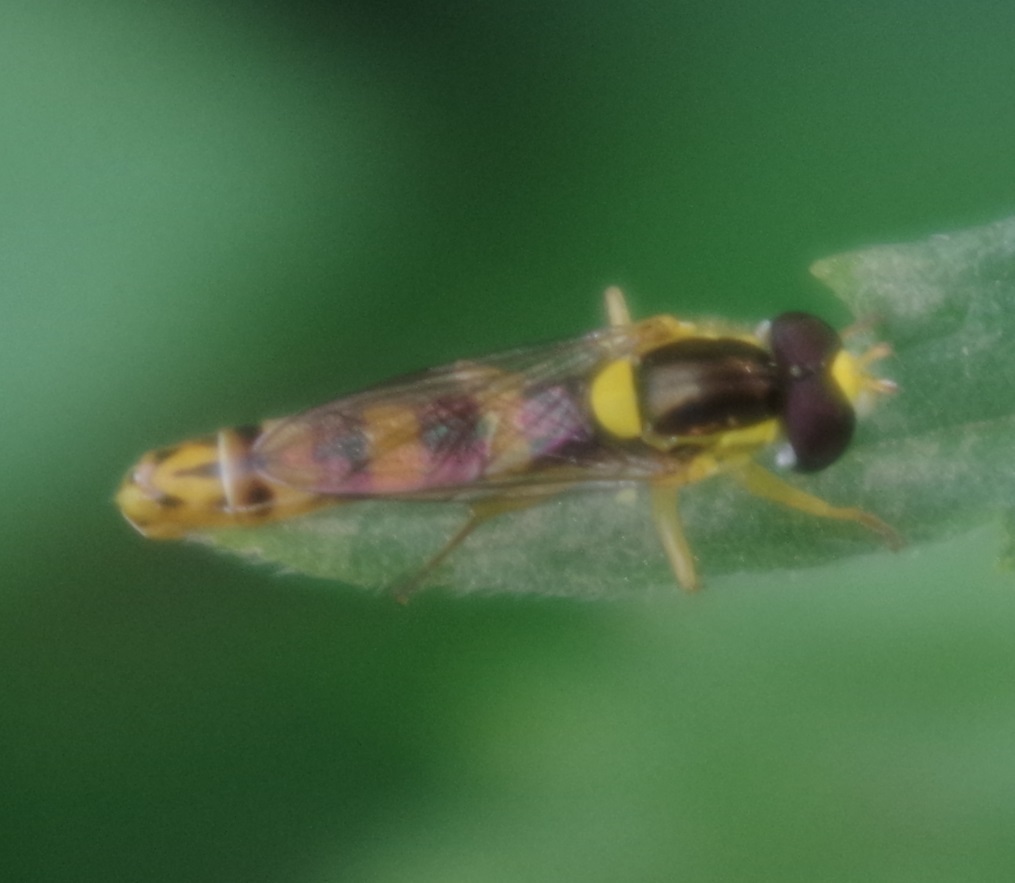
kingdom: Animalia
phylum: Arthropoda
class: Insecta
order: Diptera
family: Syrphidae
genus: Sphaerophoria
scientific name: Sphaerophoria scripta
